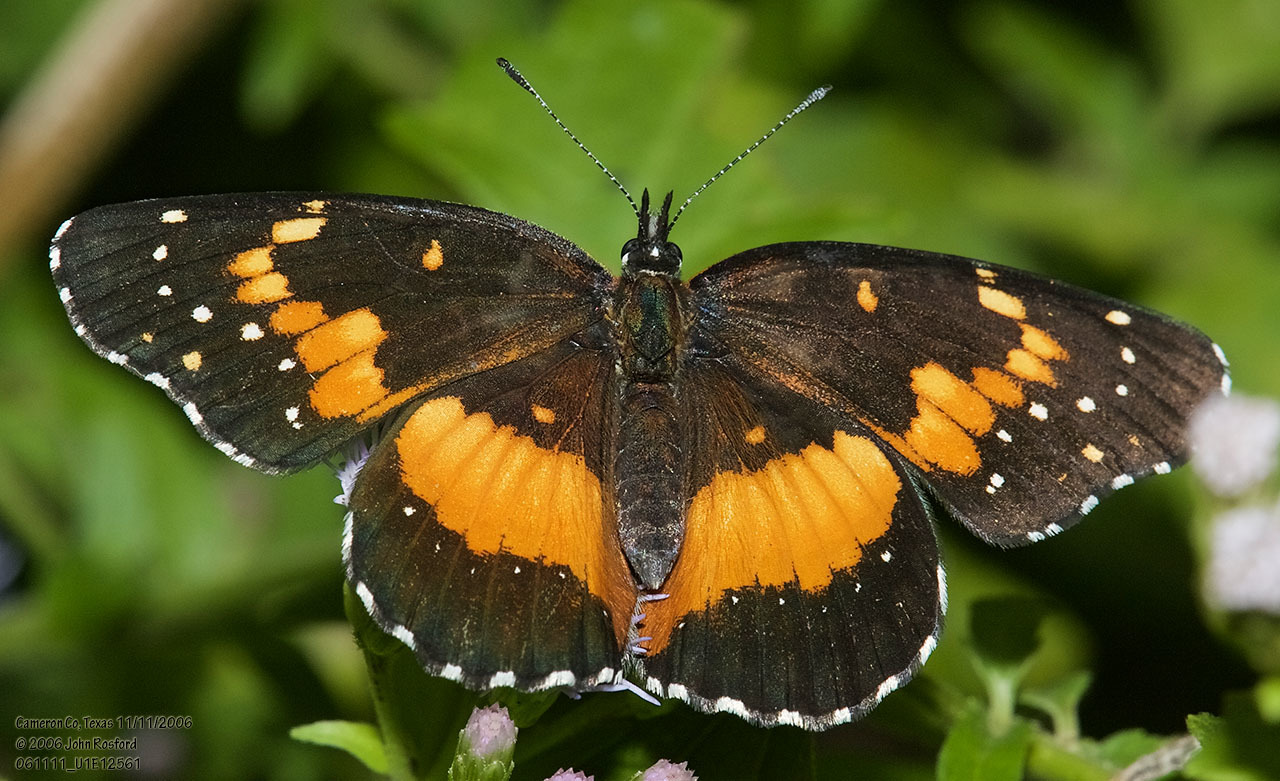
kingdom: Animalia
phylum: Arthropoda
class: Insecta
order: Lepidoptera
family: Nymphalidae
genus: Chlosyne
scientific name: Chlosyne lacinia
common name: Bordered patch
